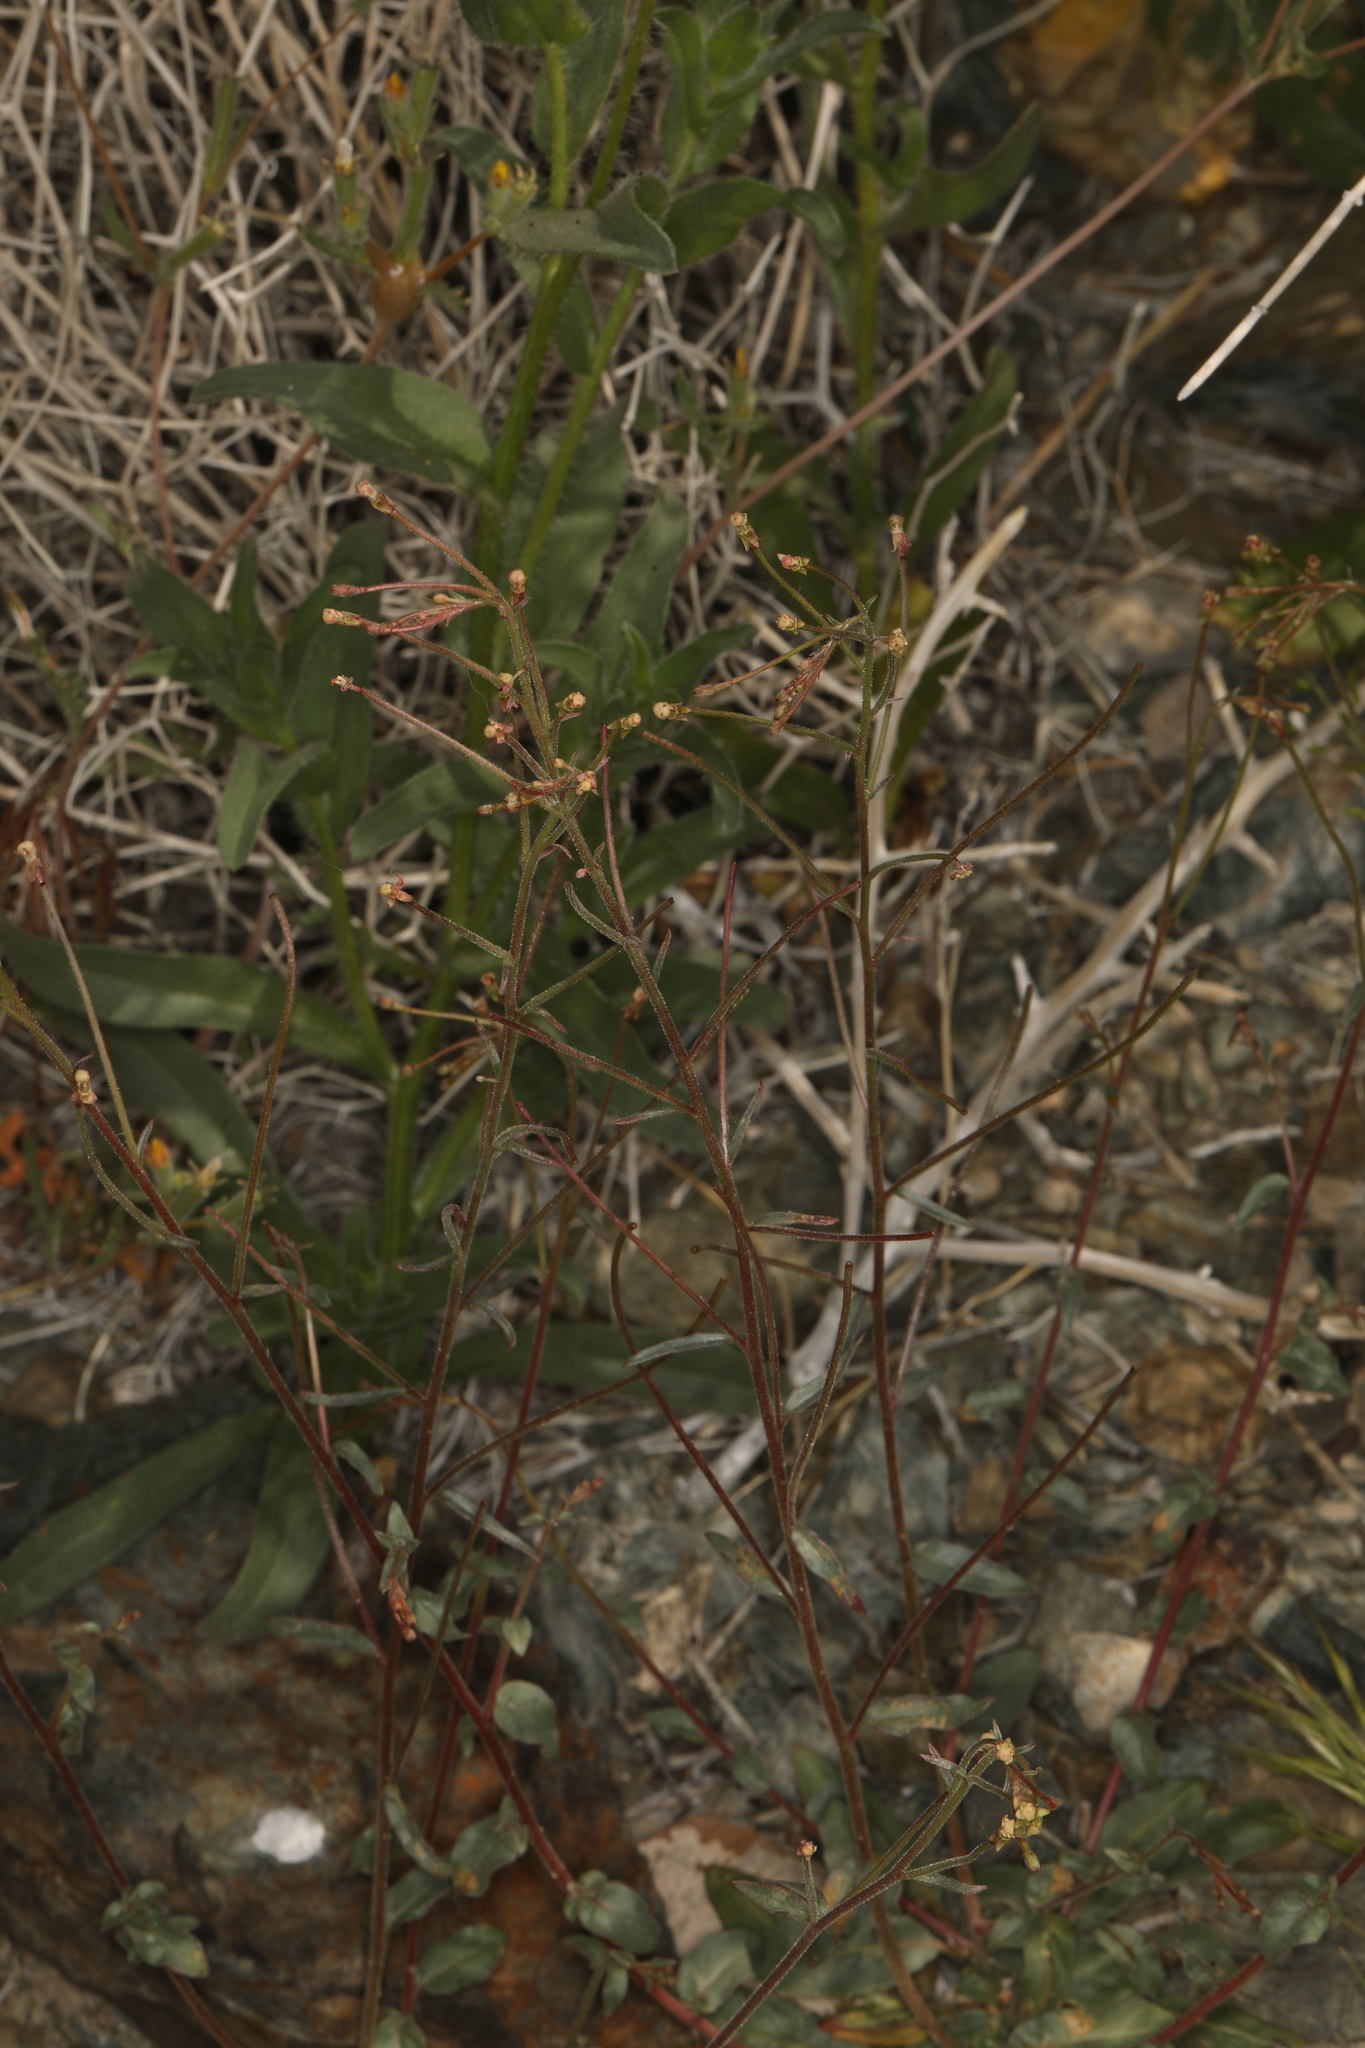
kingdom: Plantae
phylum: Tracheophyta
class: Magnoliopsida
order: Myrtales
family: Onagraceae
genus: Eremothera
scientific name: Eremothera chamaenerioides
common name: Longcapsule suncup
